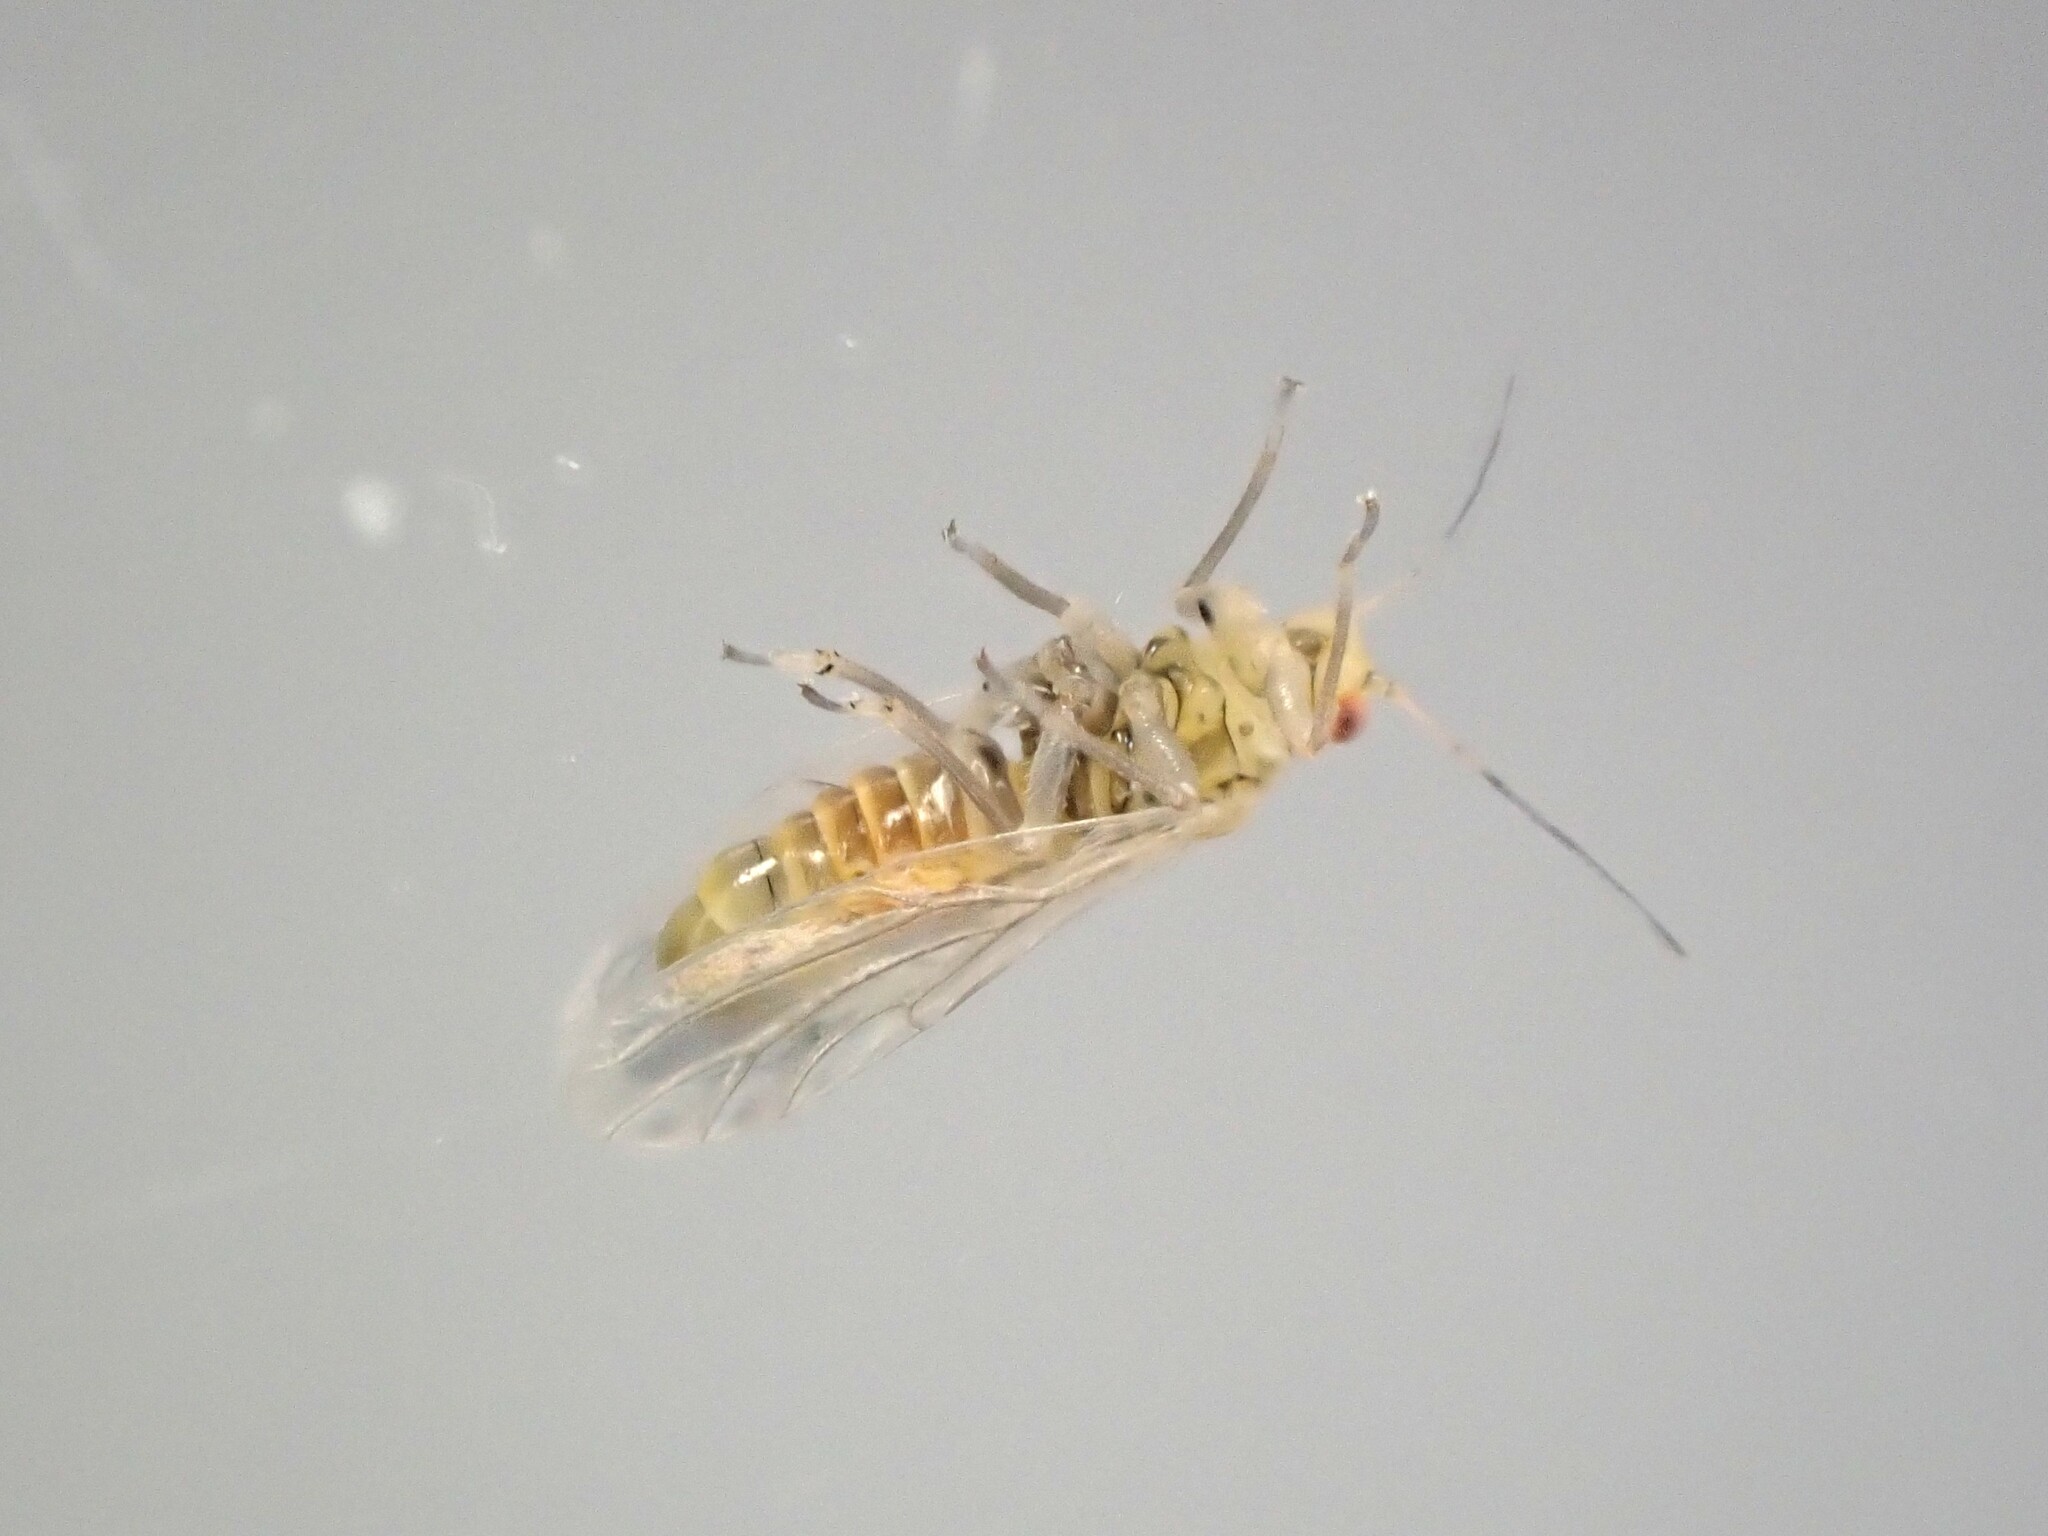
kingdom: Animalia
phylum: Arthropoda
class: Insecta
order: Hemiptera
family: Psyllidae
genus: Arytainilla
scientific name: Arytainilla spartiophila
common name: Psyllid
